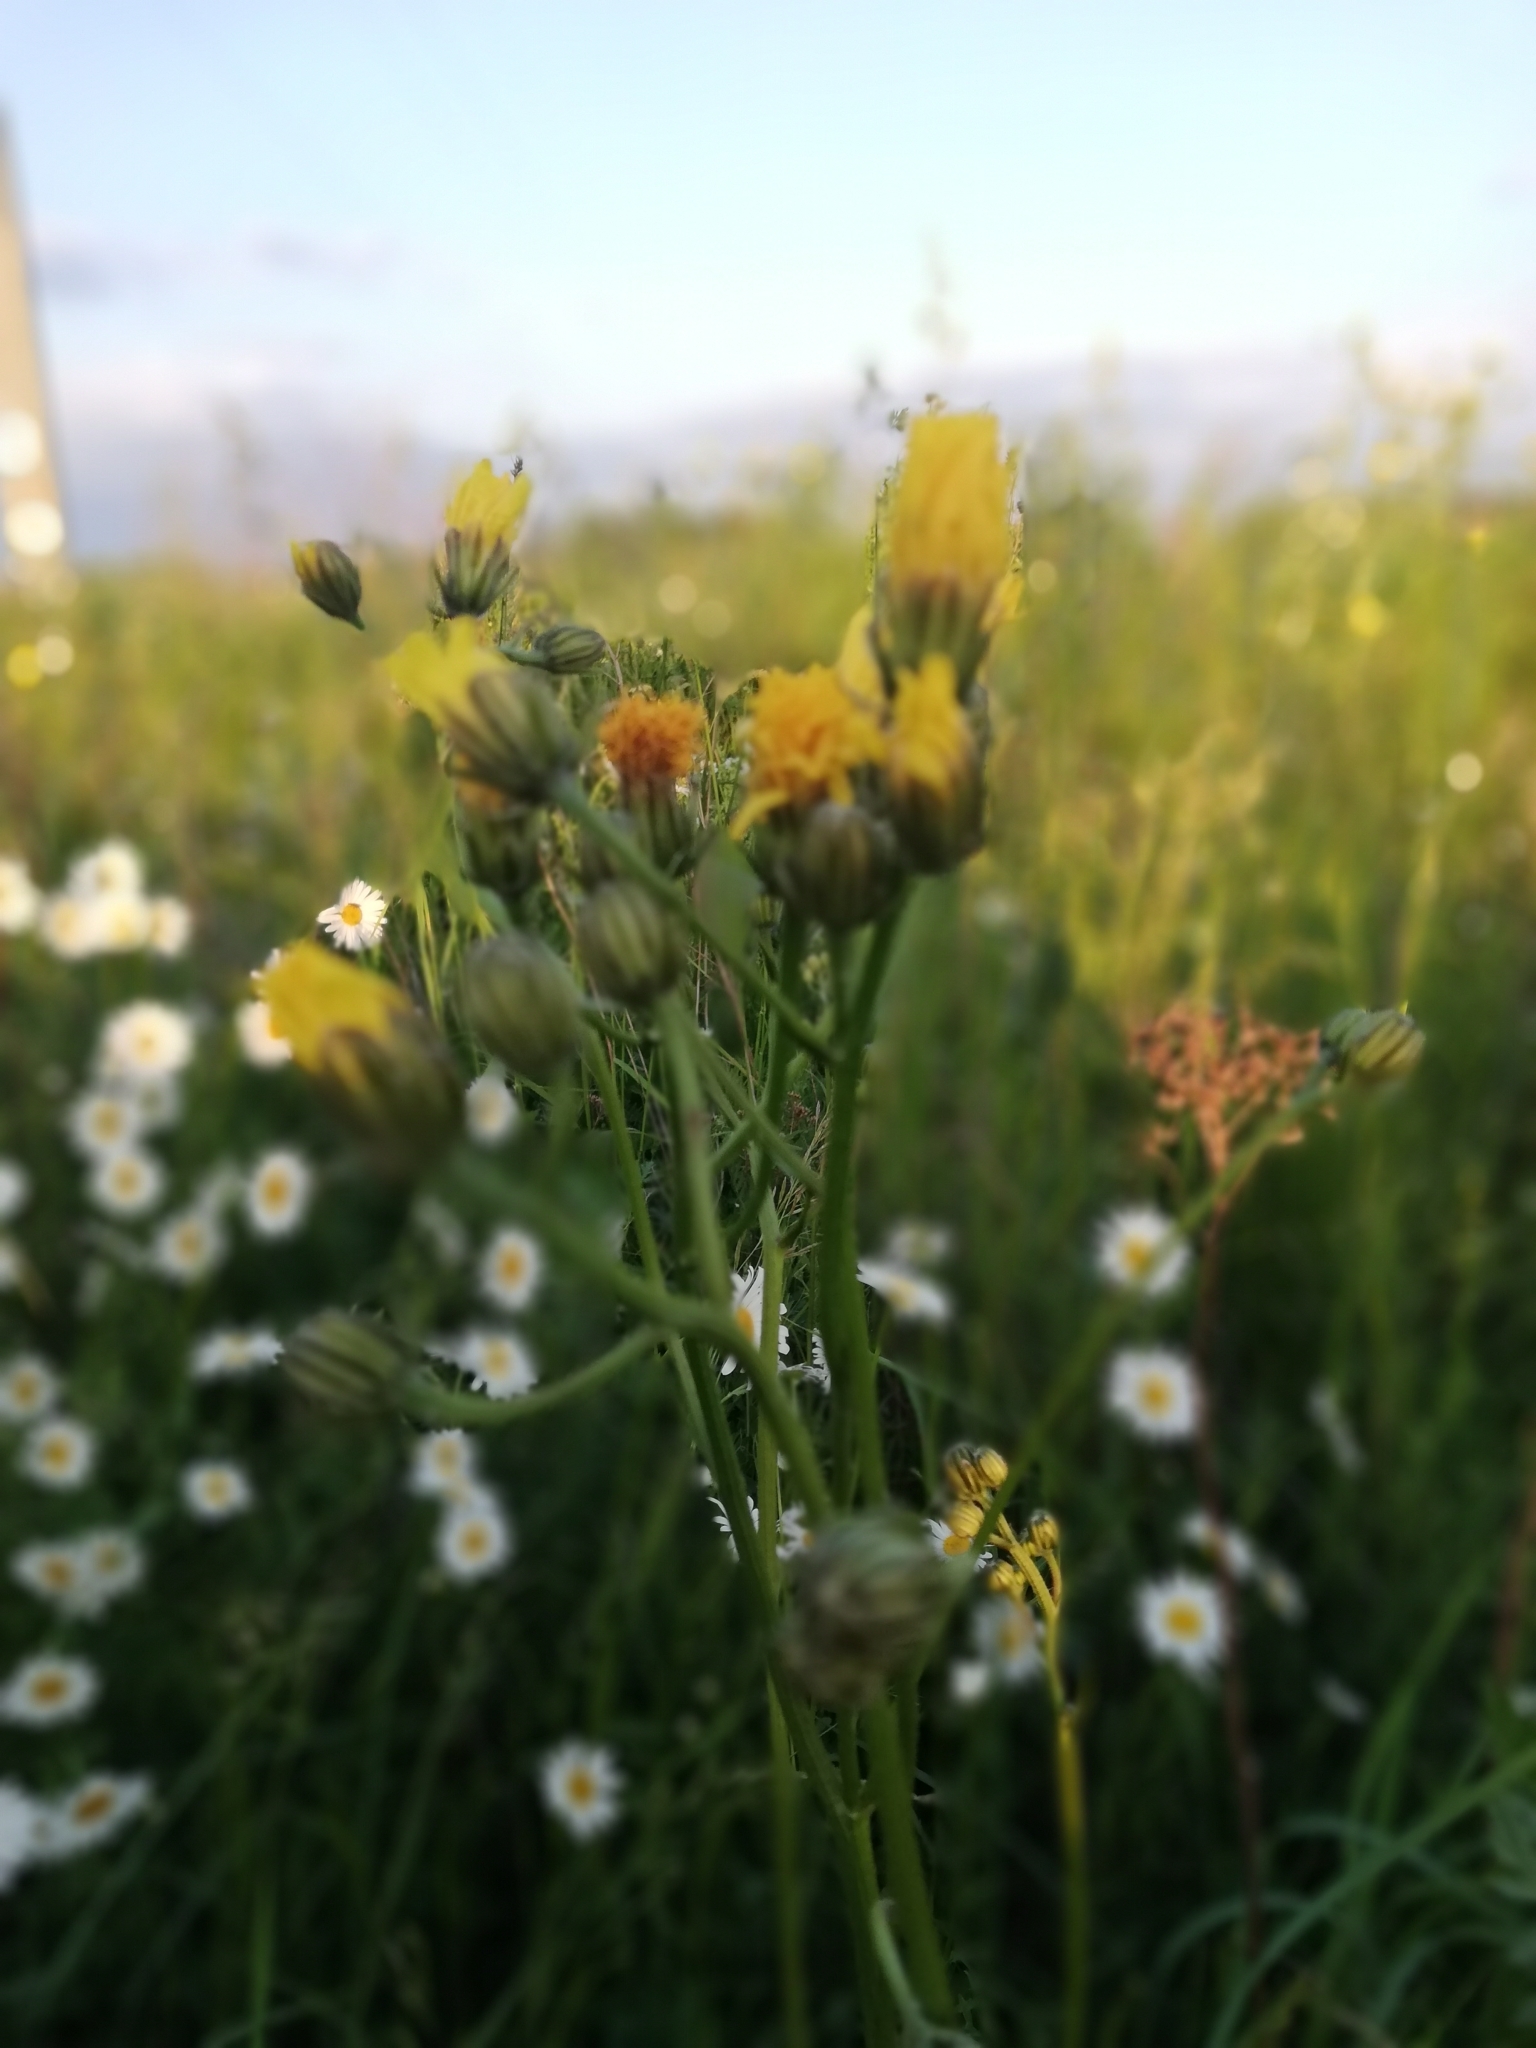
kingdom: Plantae
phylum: Tracheophyta
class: Magnoliopsida
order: Asterales
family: Asteraceae
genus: Crepis
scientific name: Crepis biennis
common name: Rough hawk's-beard
